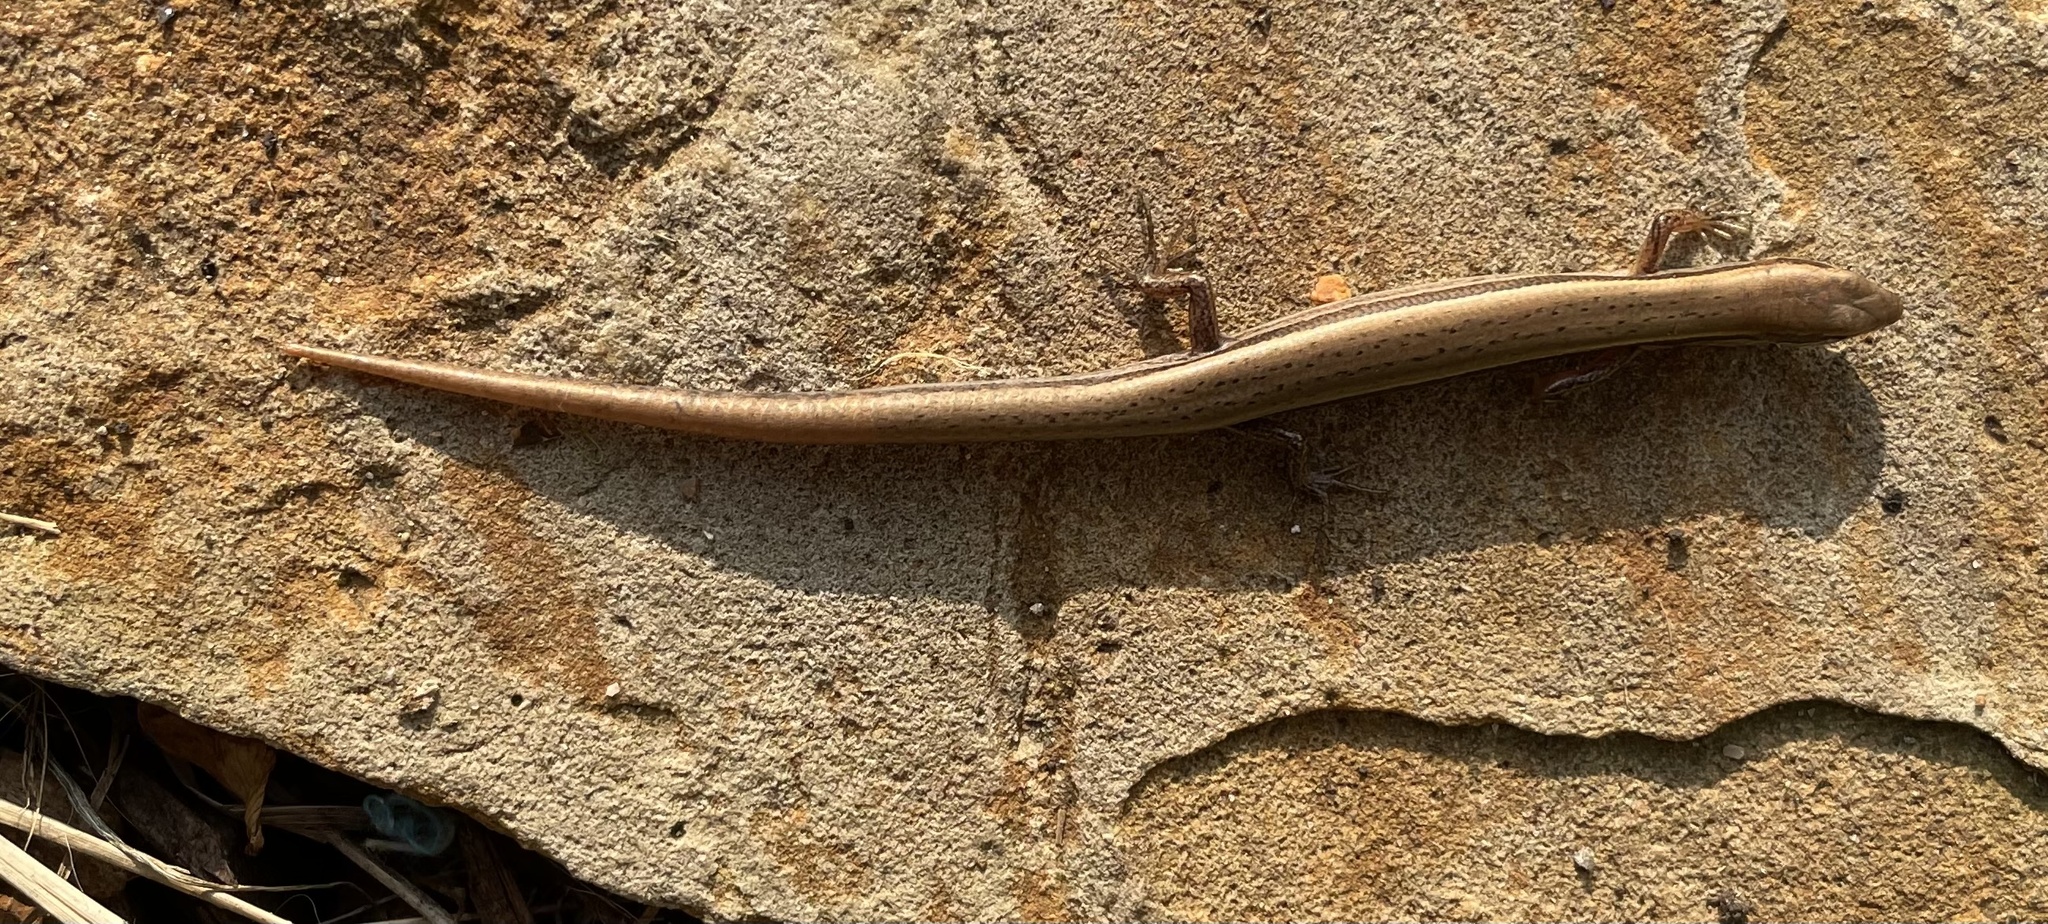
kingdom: Animalia
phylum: Chordata
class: Squamata
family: Scincidae
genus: Scincella
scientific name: Scincella lateralis
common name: Ground skink
